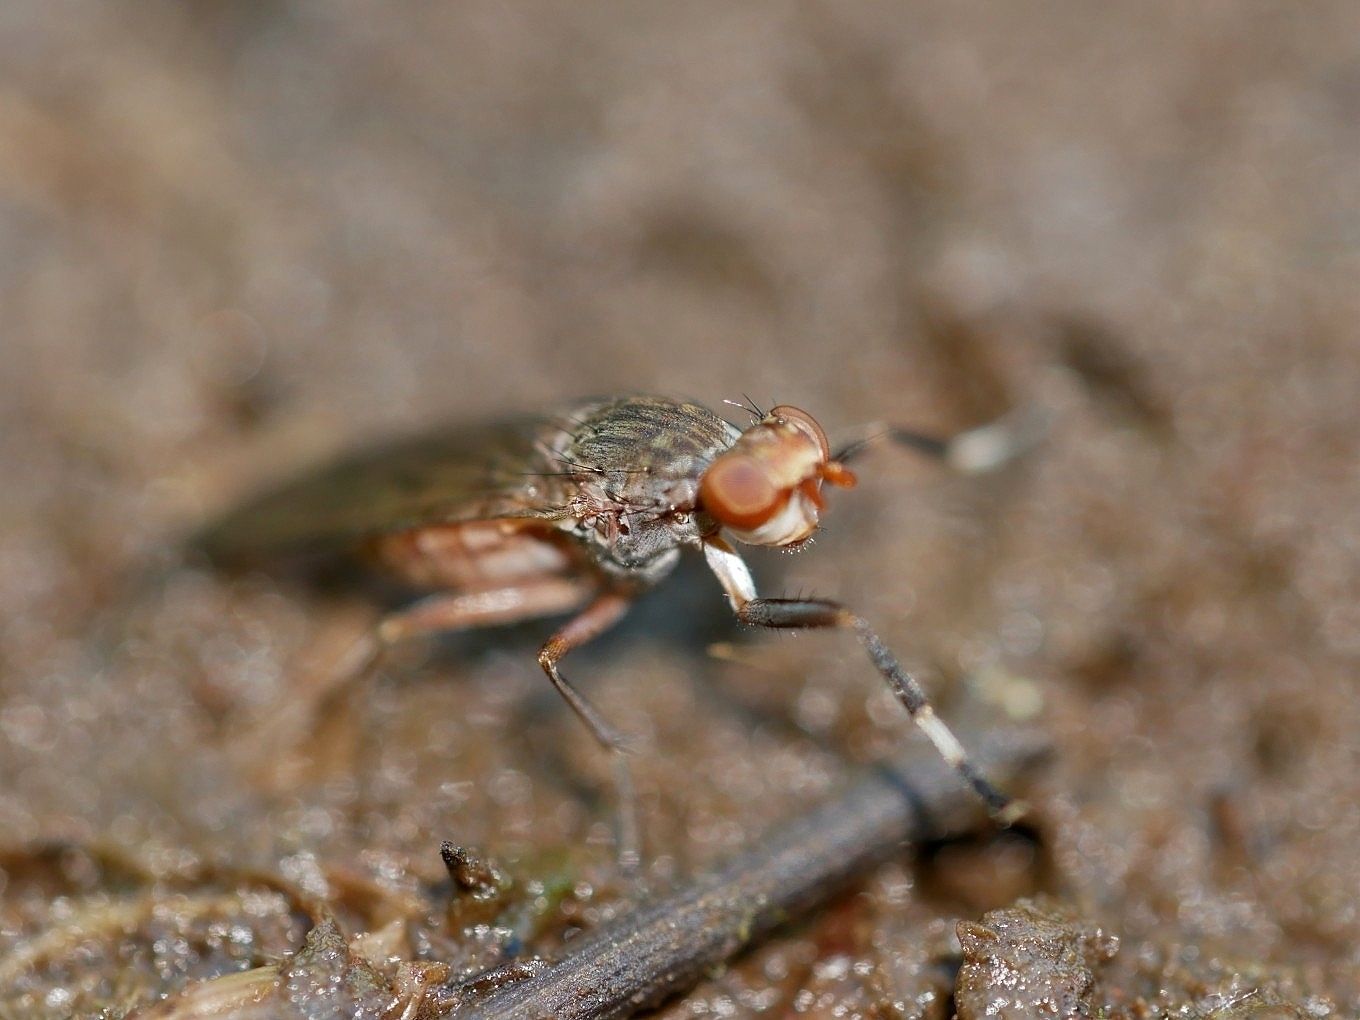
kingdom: Animalia
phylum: Arthropoda
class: Insecta
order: Diptera
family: Sciomyzidae
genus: Atrichomelina
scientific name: Atrichomelina pubera
